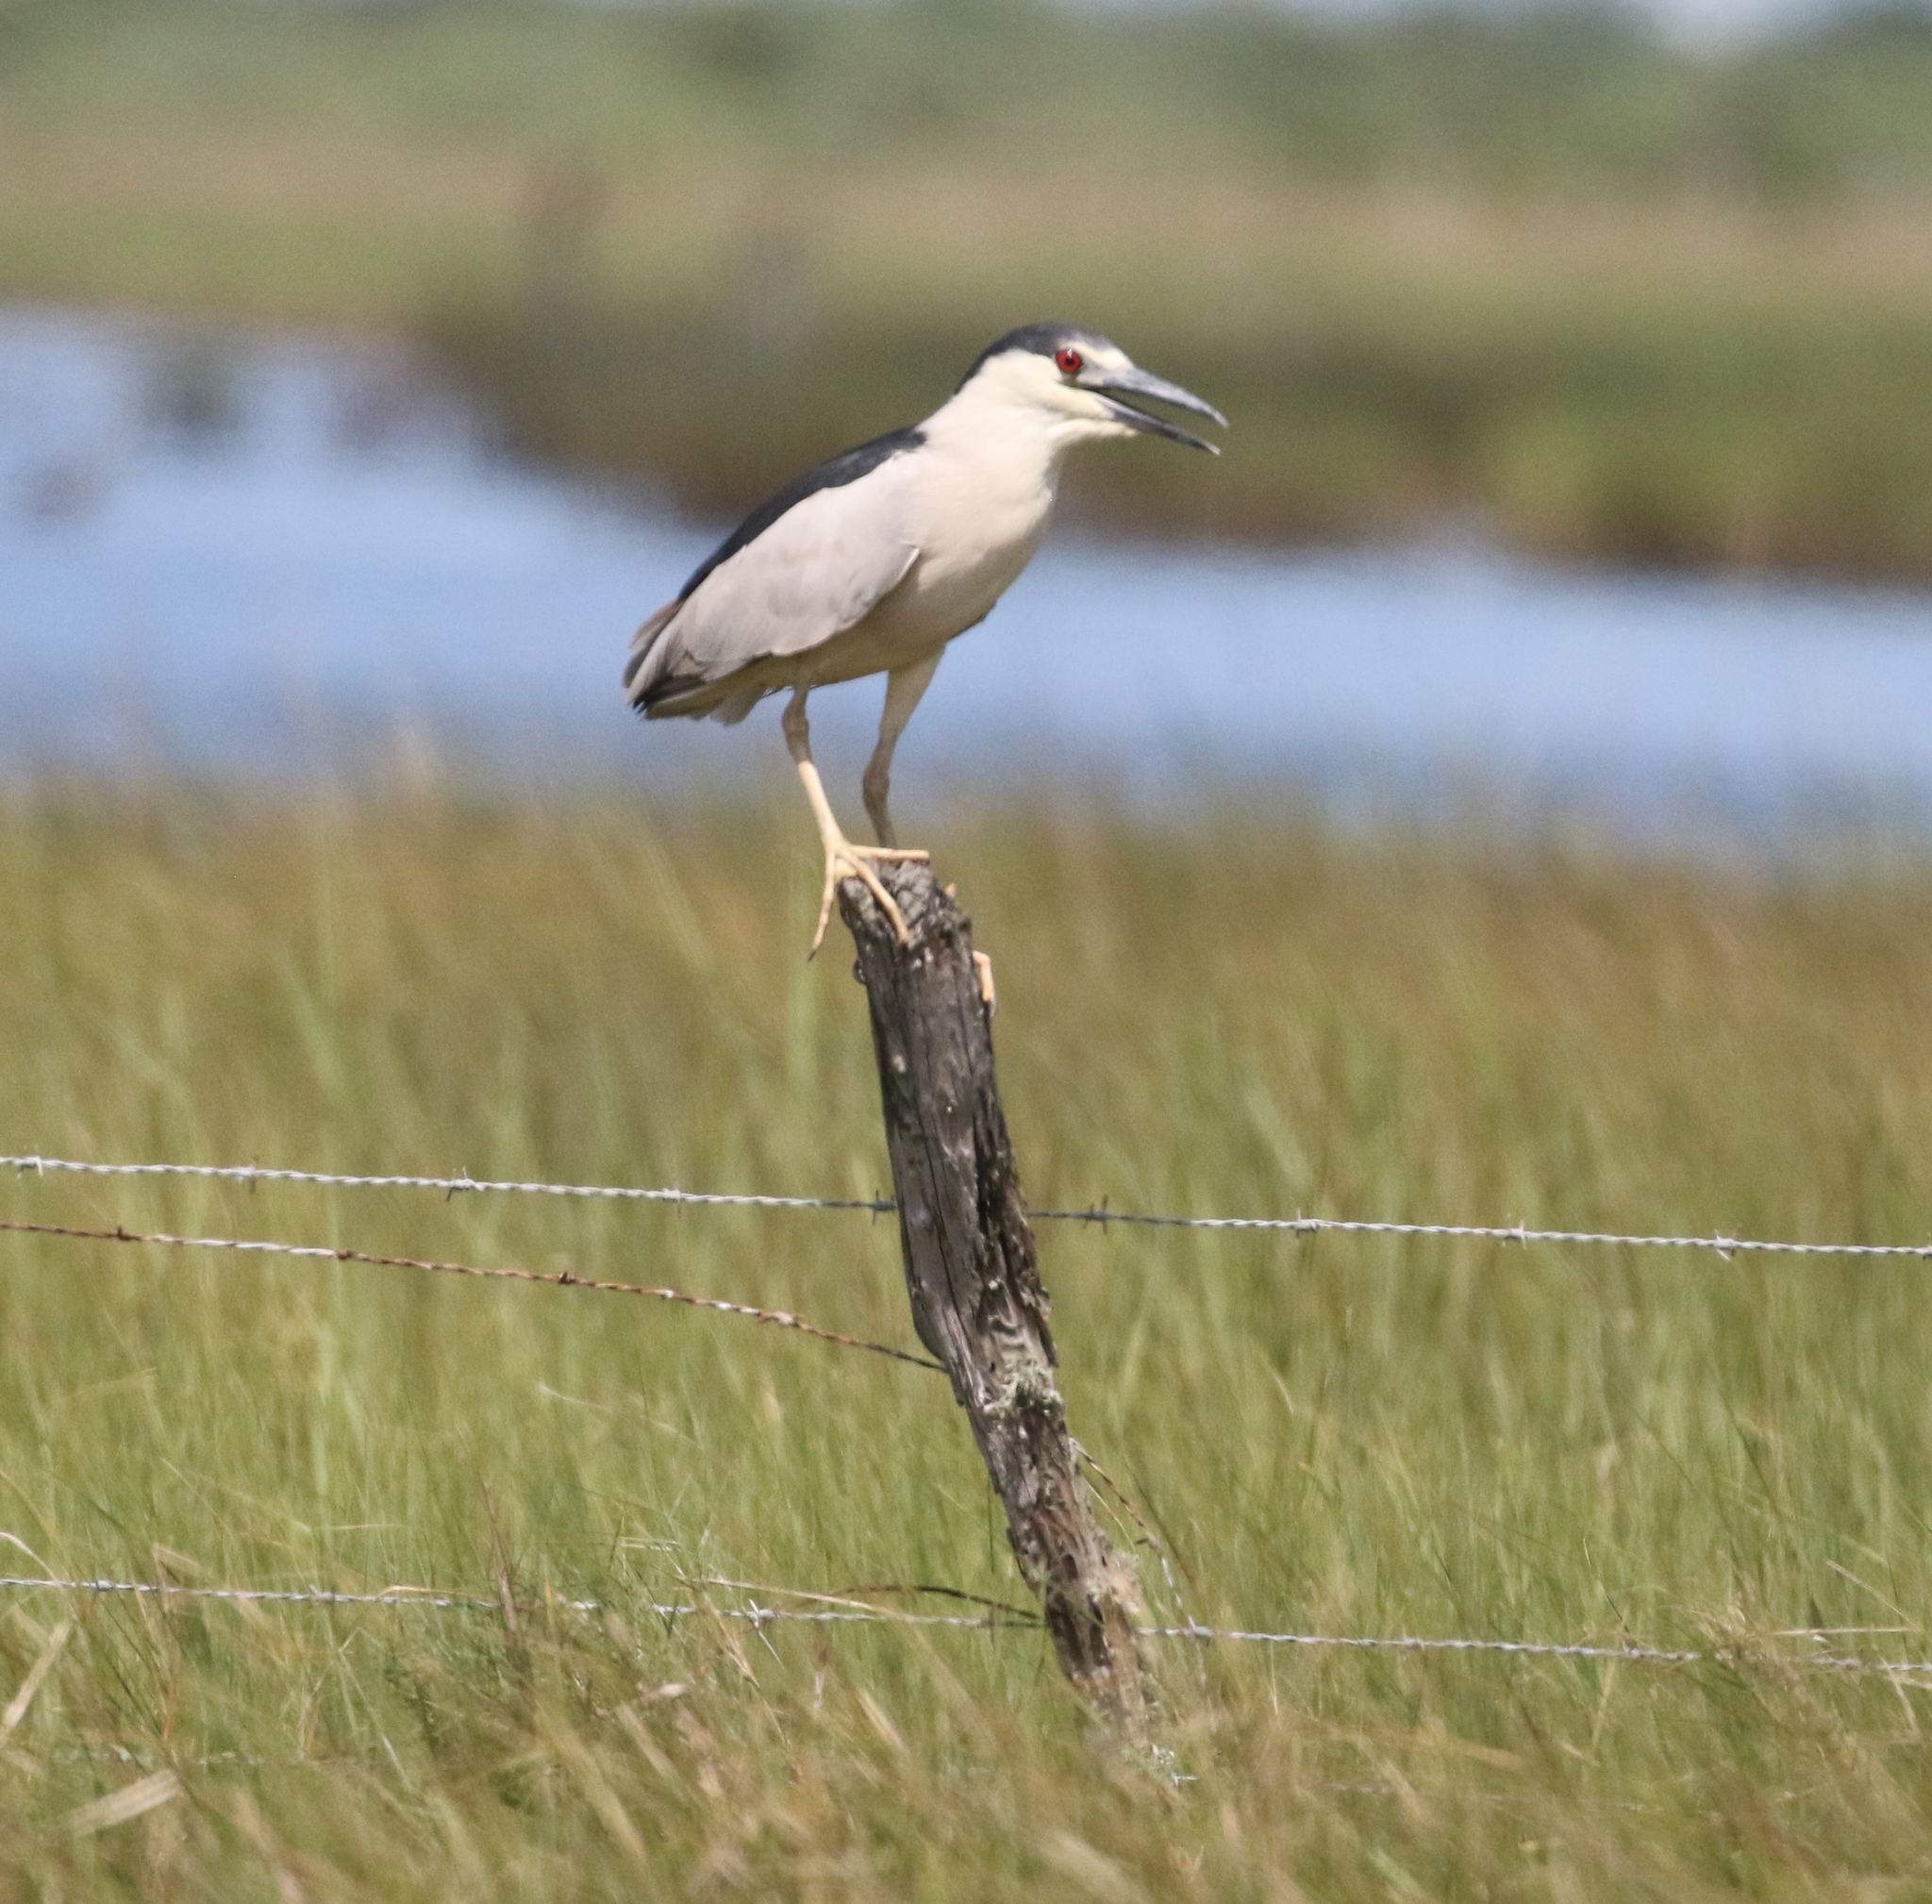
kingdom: Animalia
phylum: Chordata
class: Aves
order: Pelecaniformes
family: Ardeidae
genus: Nycticorax
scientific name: Nycticorax nycticorax
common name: Black-crowned night heron
